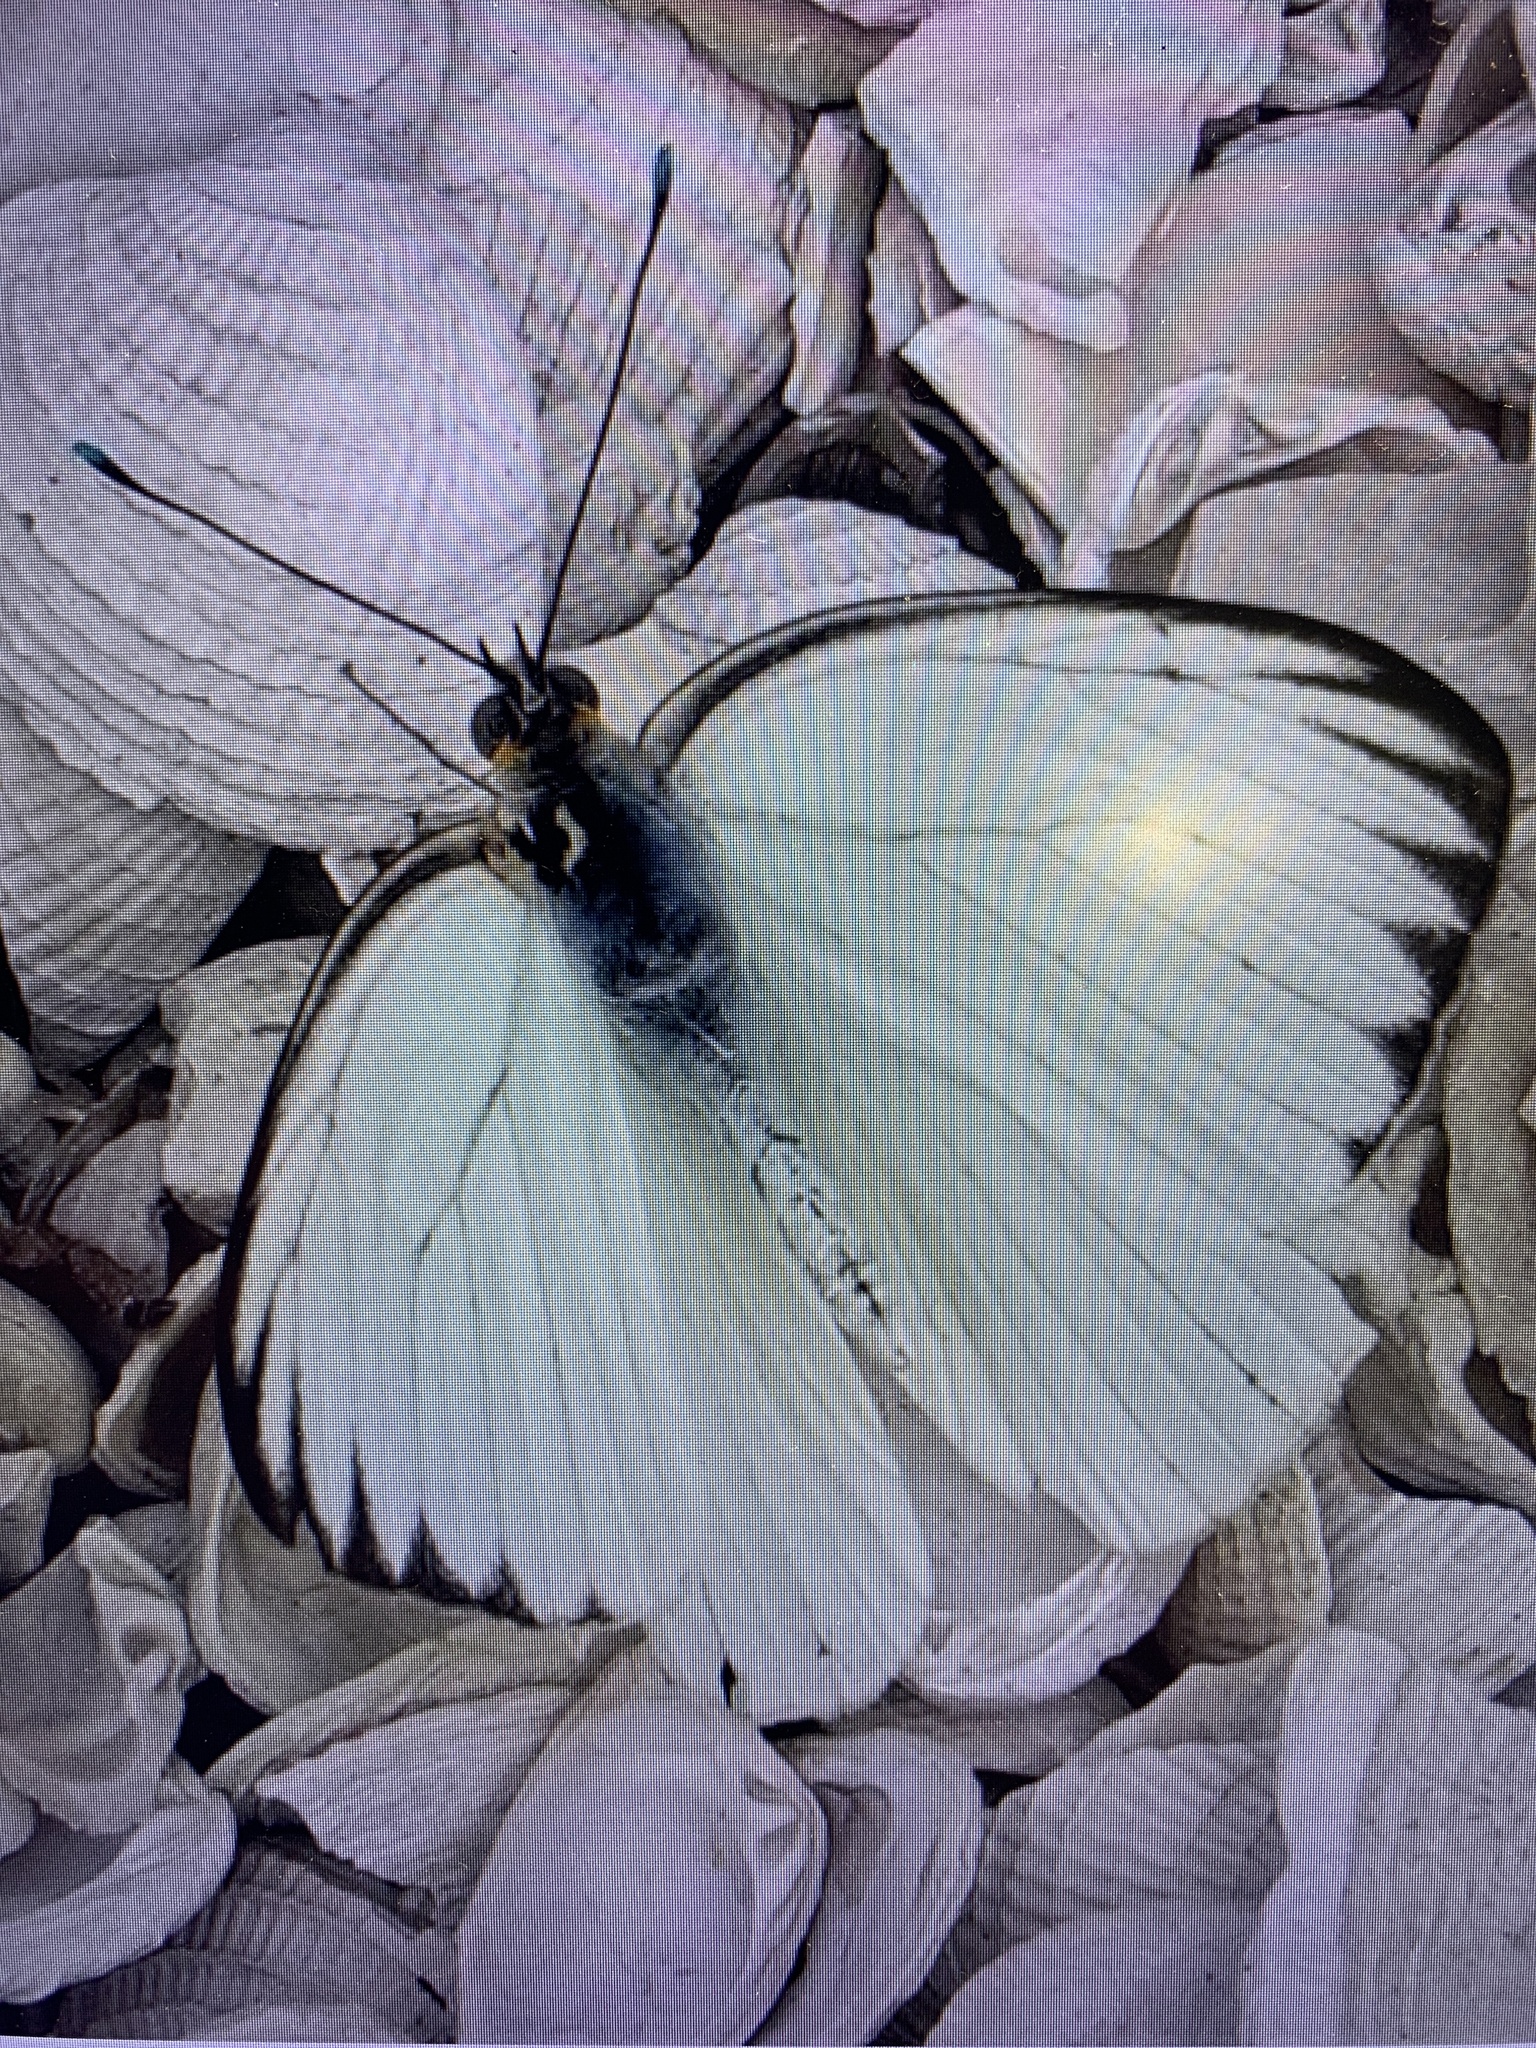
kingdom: Animalia
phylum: Arthropoda
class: Insecta
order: Lepidoptera
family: Pieridae
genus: Ascia
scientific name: Ascia monuste
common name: Great southern white
